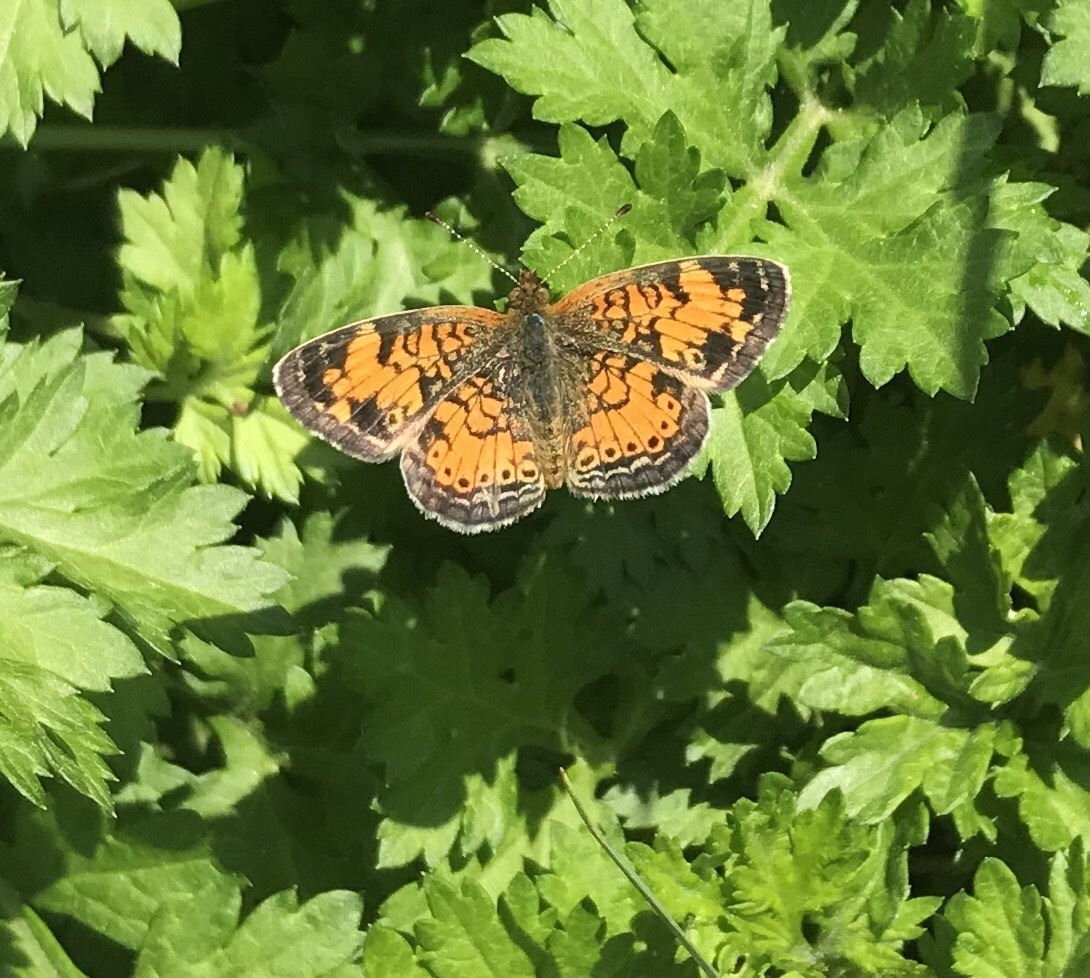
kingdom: Animalia
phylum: Arthropoda
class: Insecta
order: Lepidoptera
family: Nymphalidae
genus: Phyciodes
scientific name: Phyciodes tharos
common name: Pearl crescent
